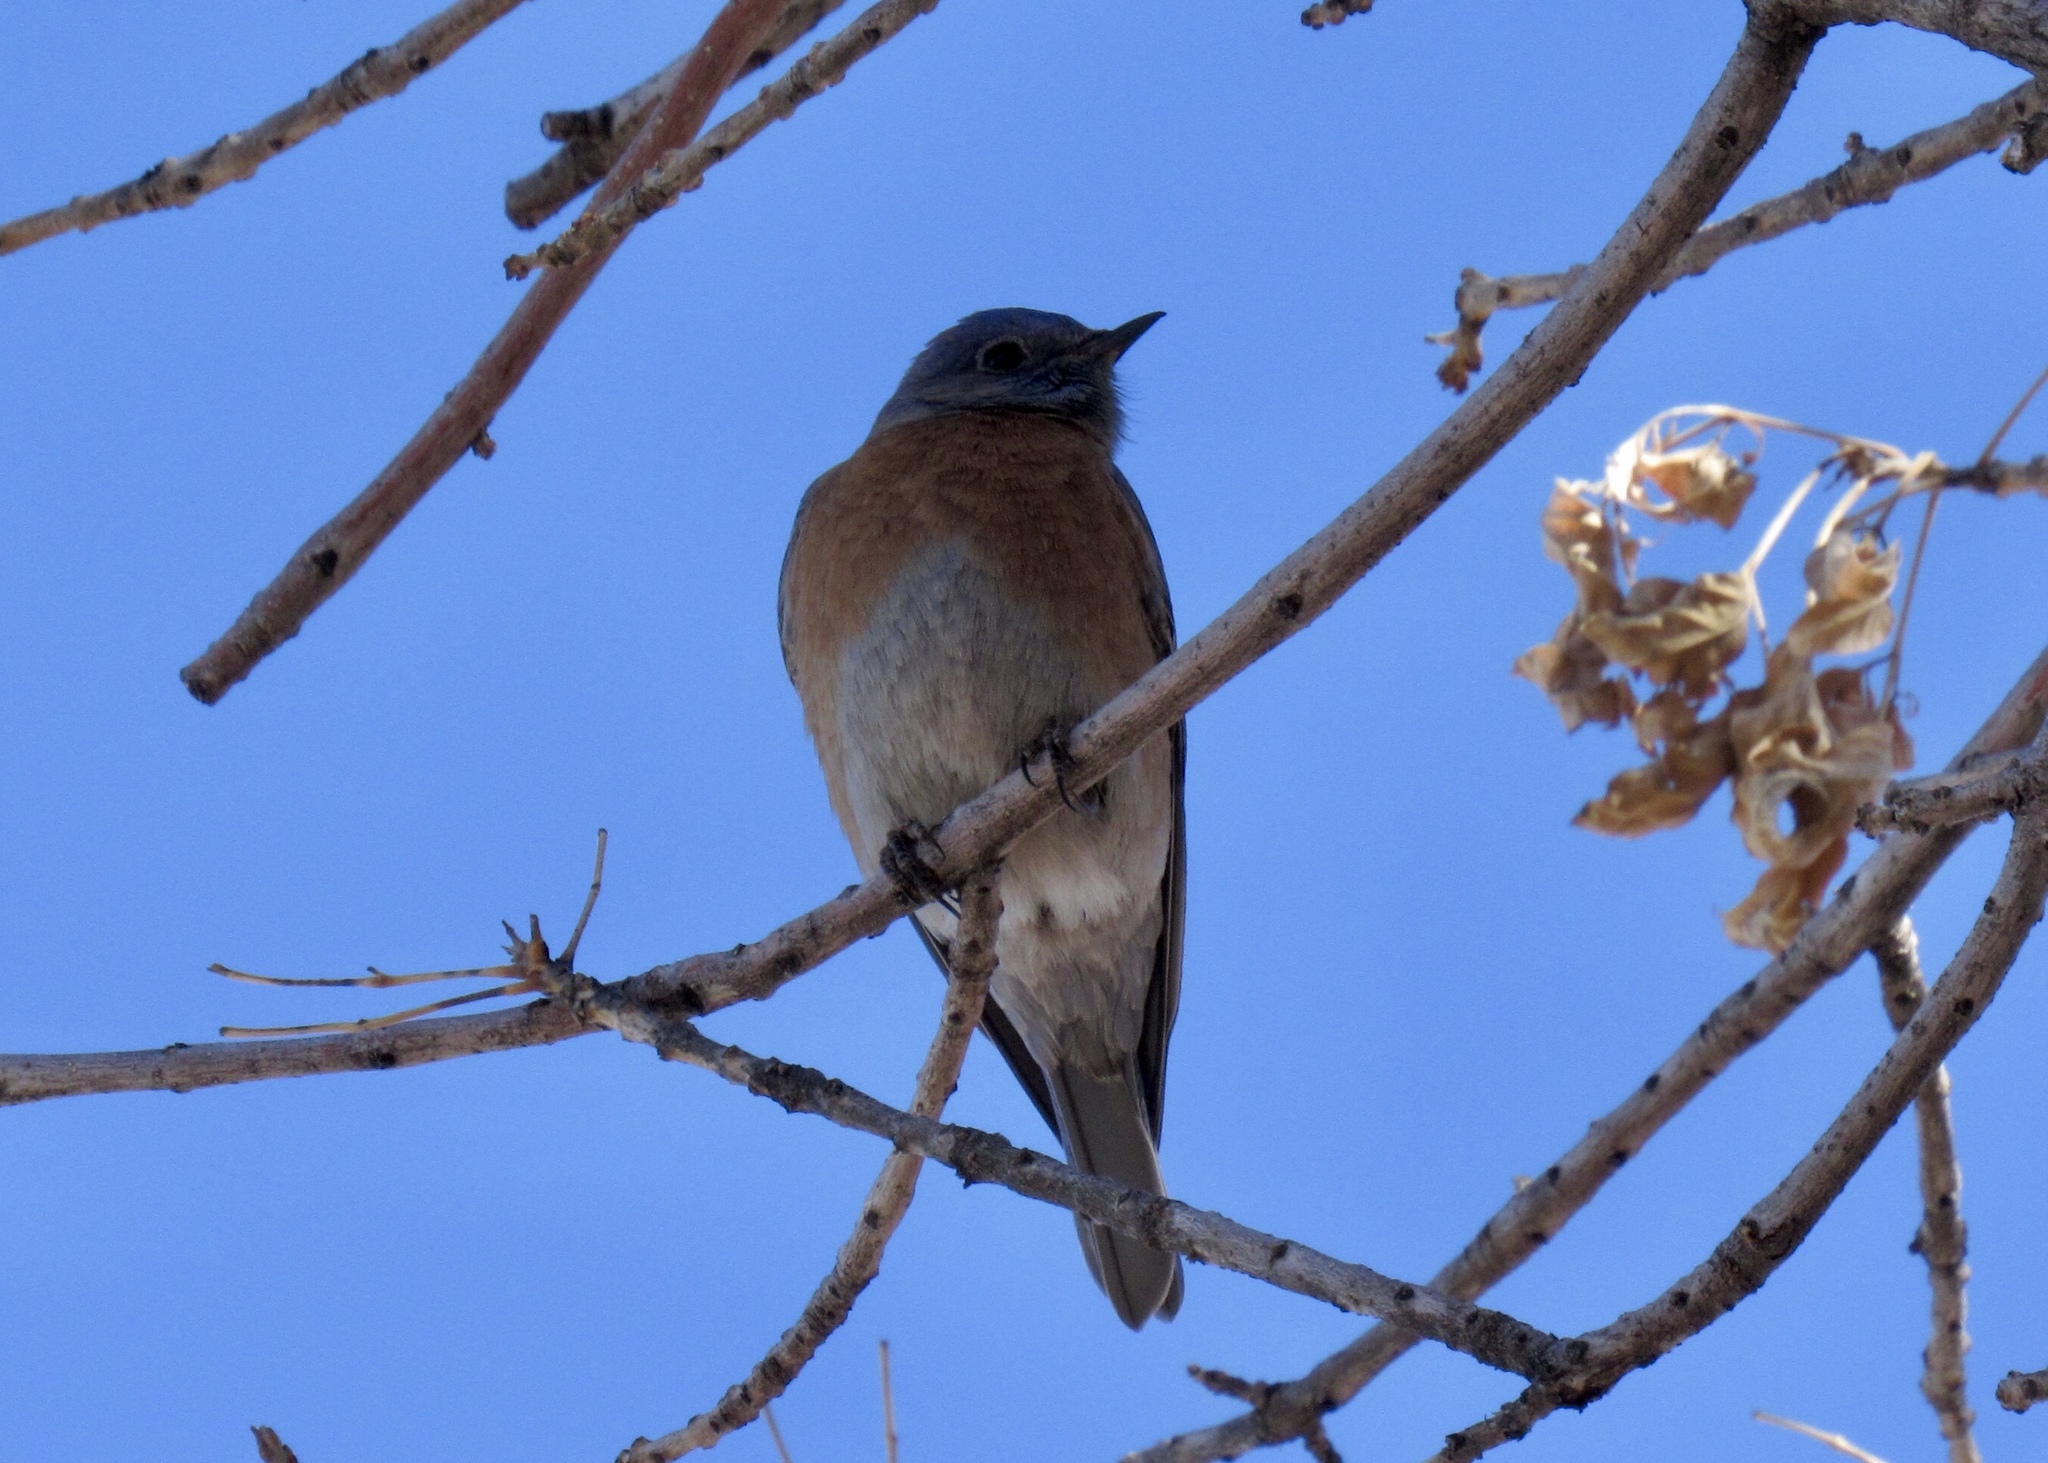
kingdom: Animalia
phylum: Chordata
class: Aves
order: Passeriformes
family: Turdidae
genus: Sialia
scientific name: Sialia mexicana
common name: Western bluebird
